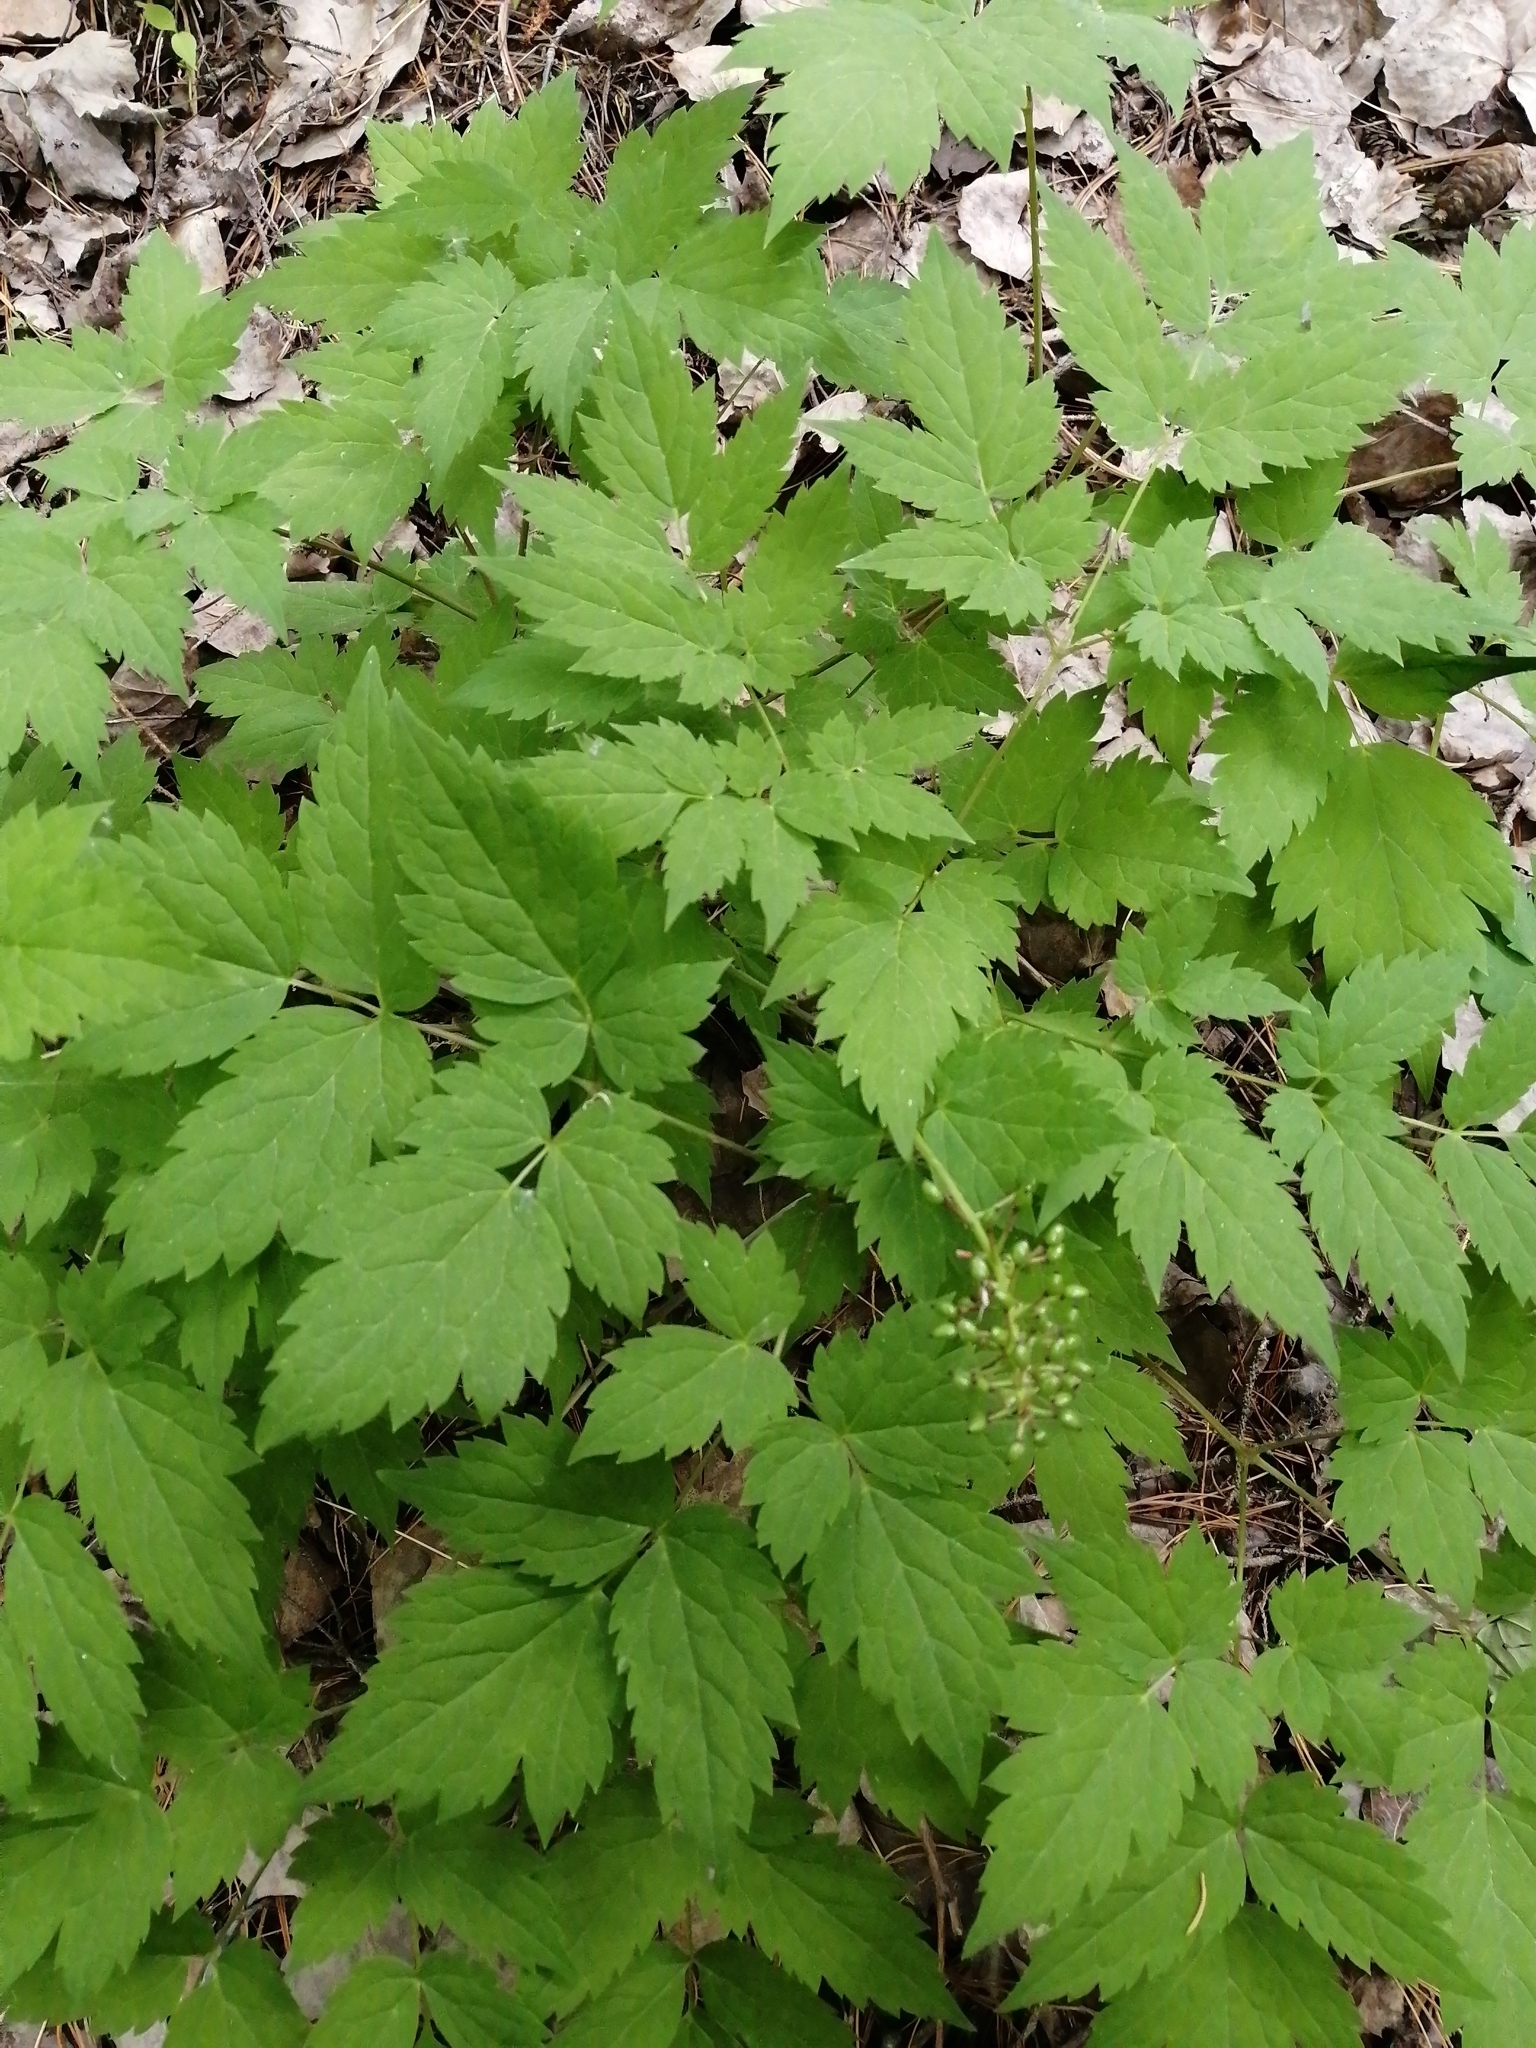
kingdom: Plantae
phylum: Tracheophyta
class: Magnoliopsida
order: Ranunculales
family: Ranunculaceae
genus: Actaea
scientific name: Actaea erythrocarpa
